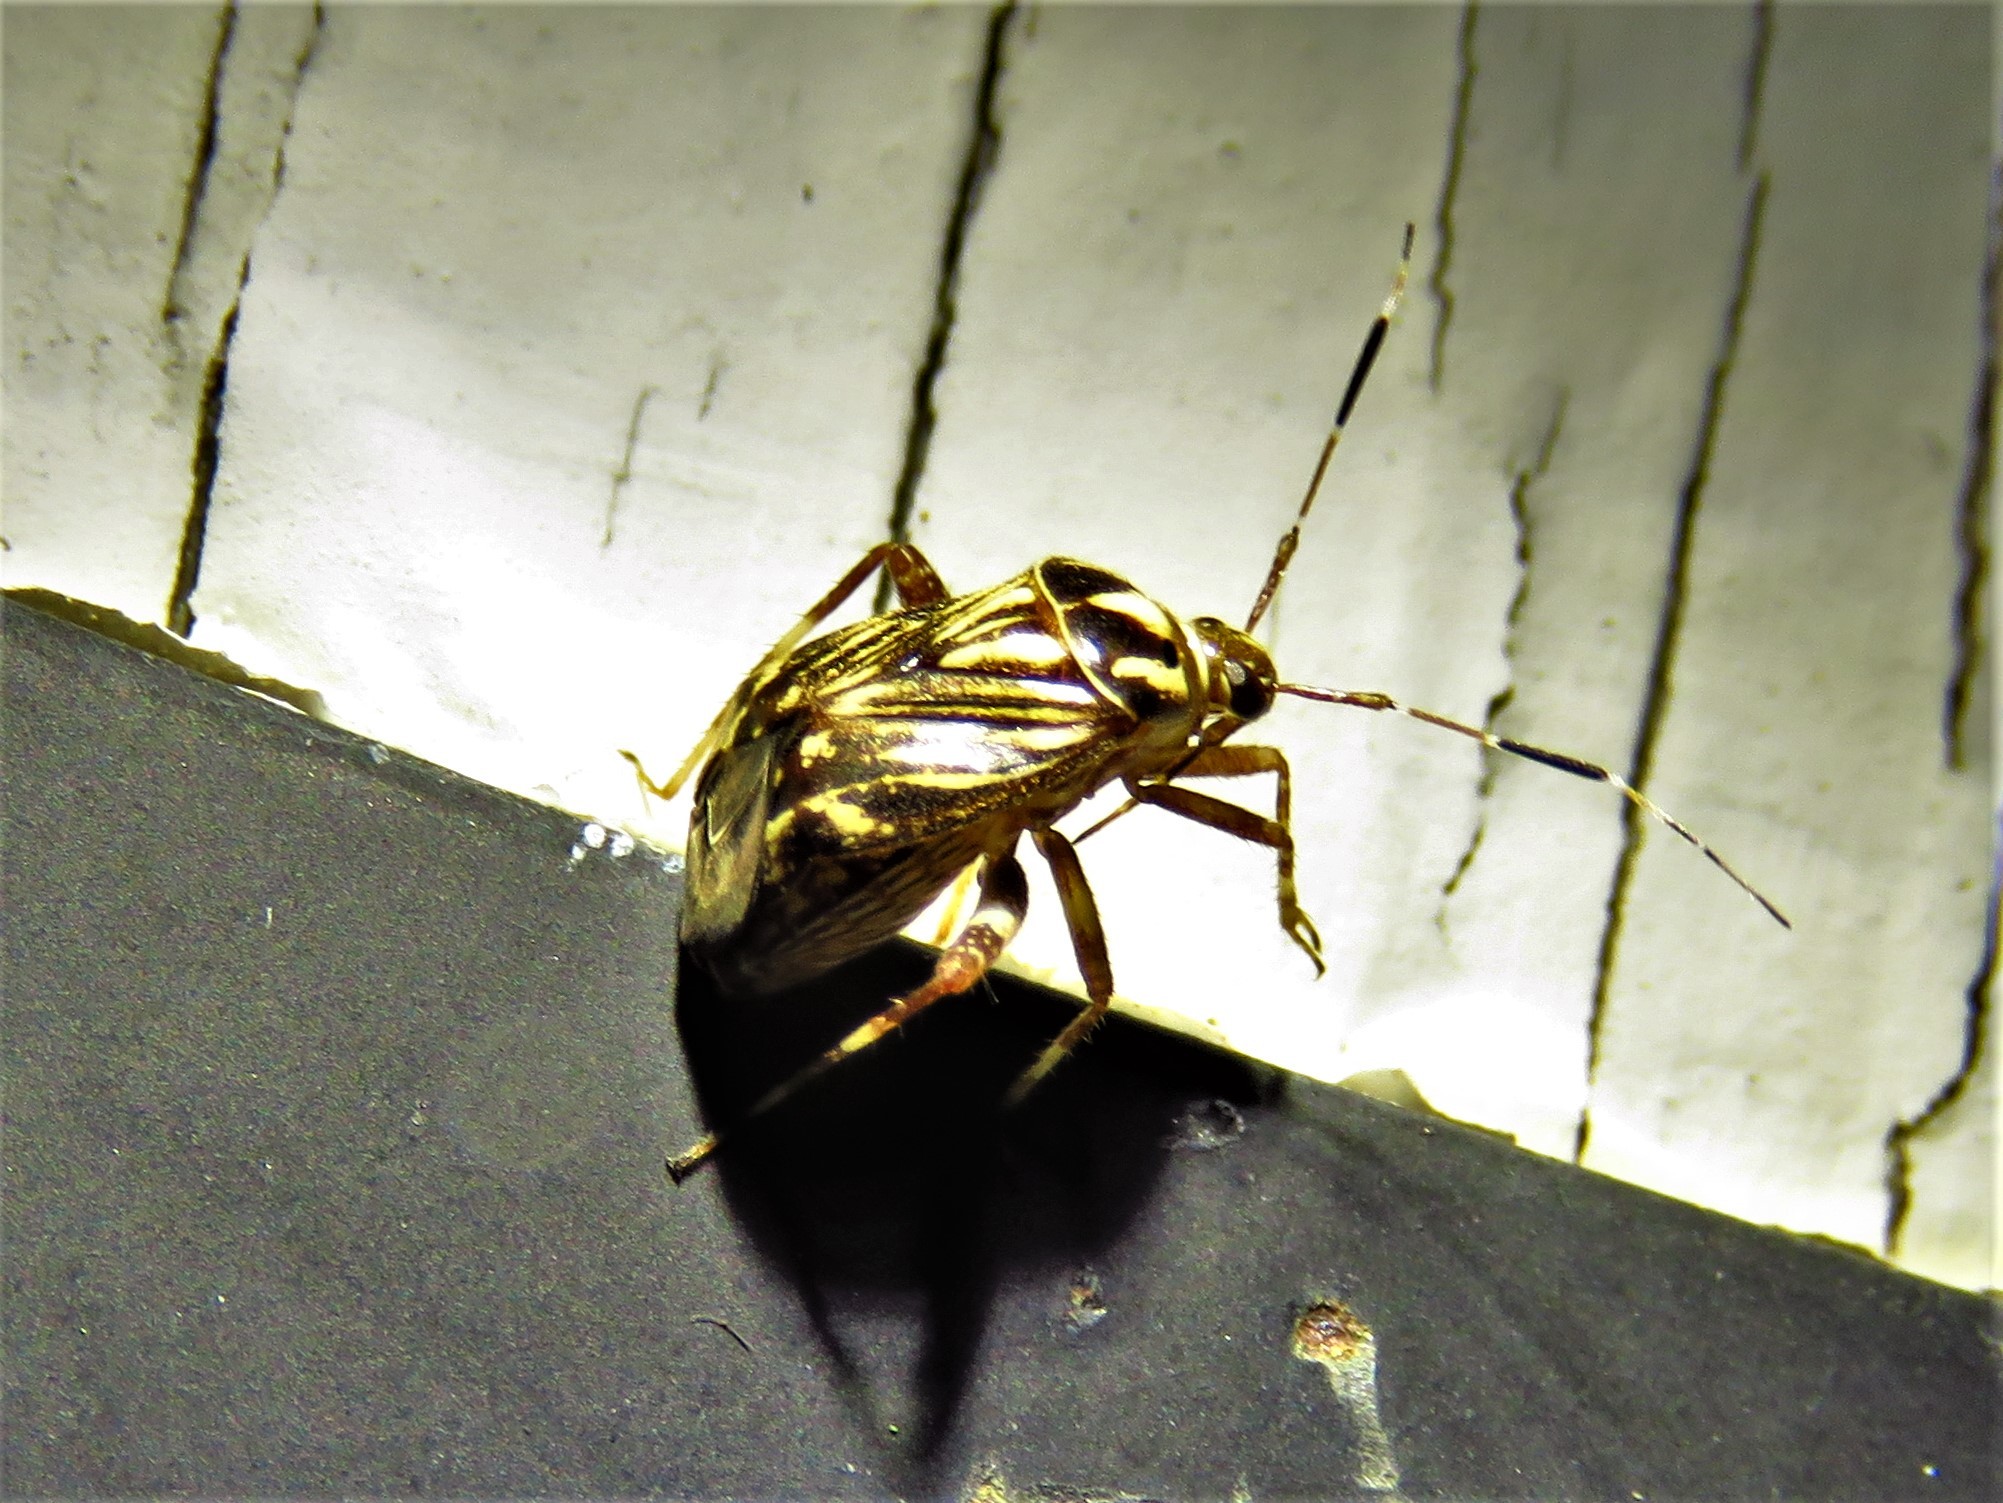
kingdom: Animalia
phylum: Arthropoda
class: Insecta
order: Hemiptera
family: Miridae
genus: Taedia
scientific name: Taedia virgulata
